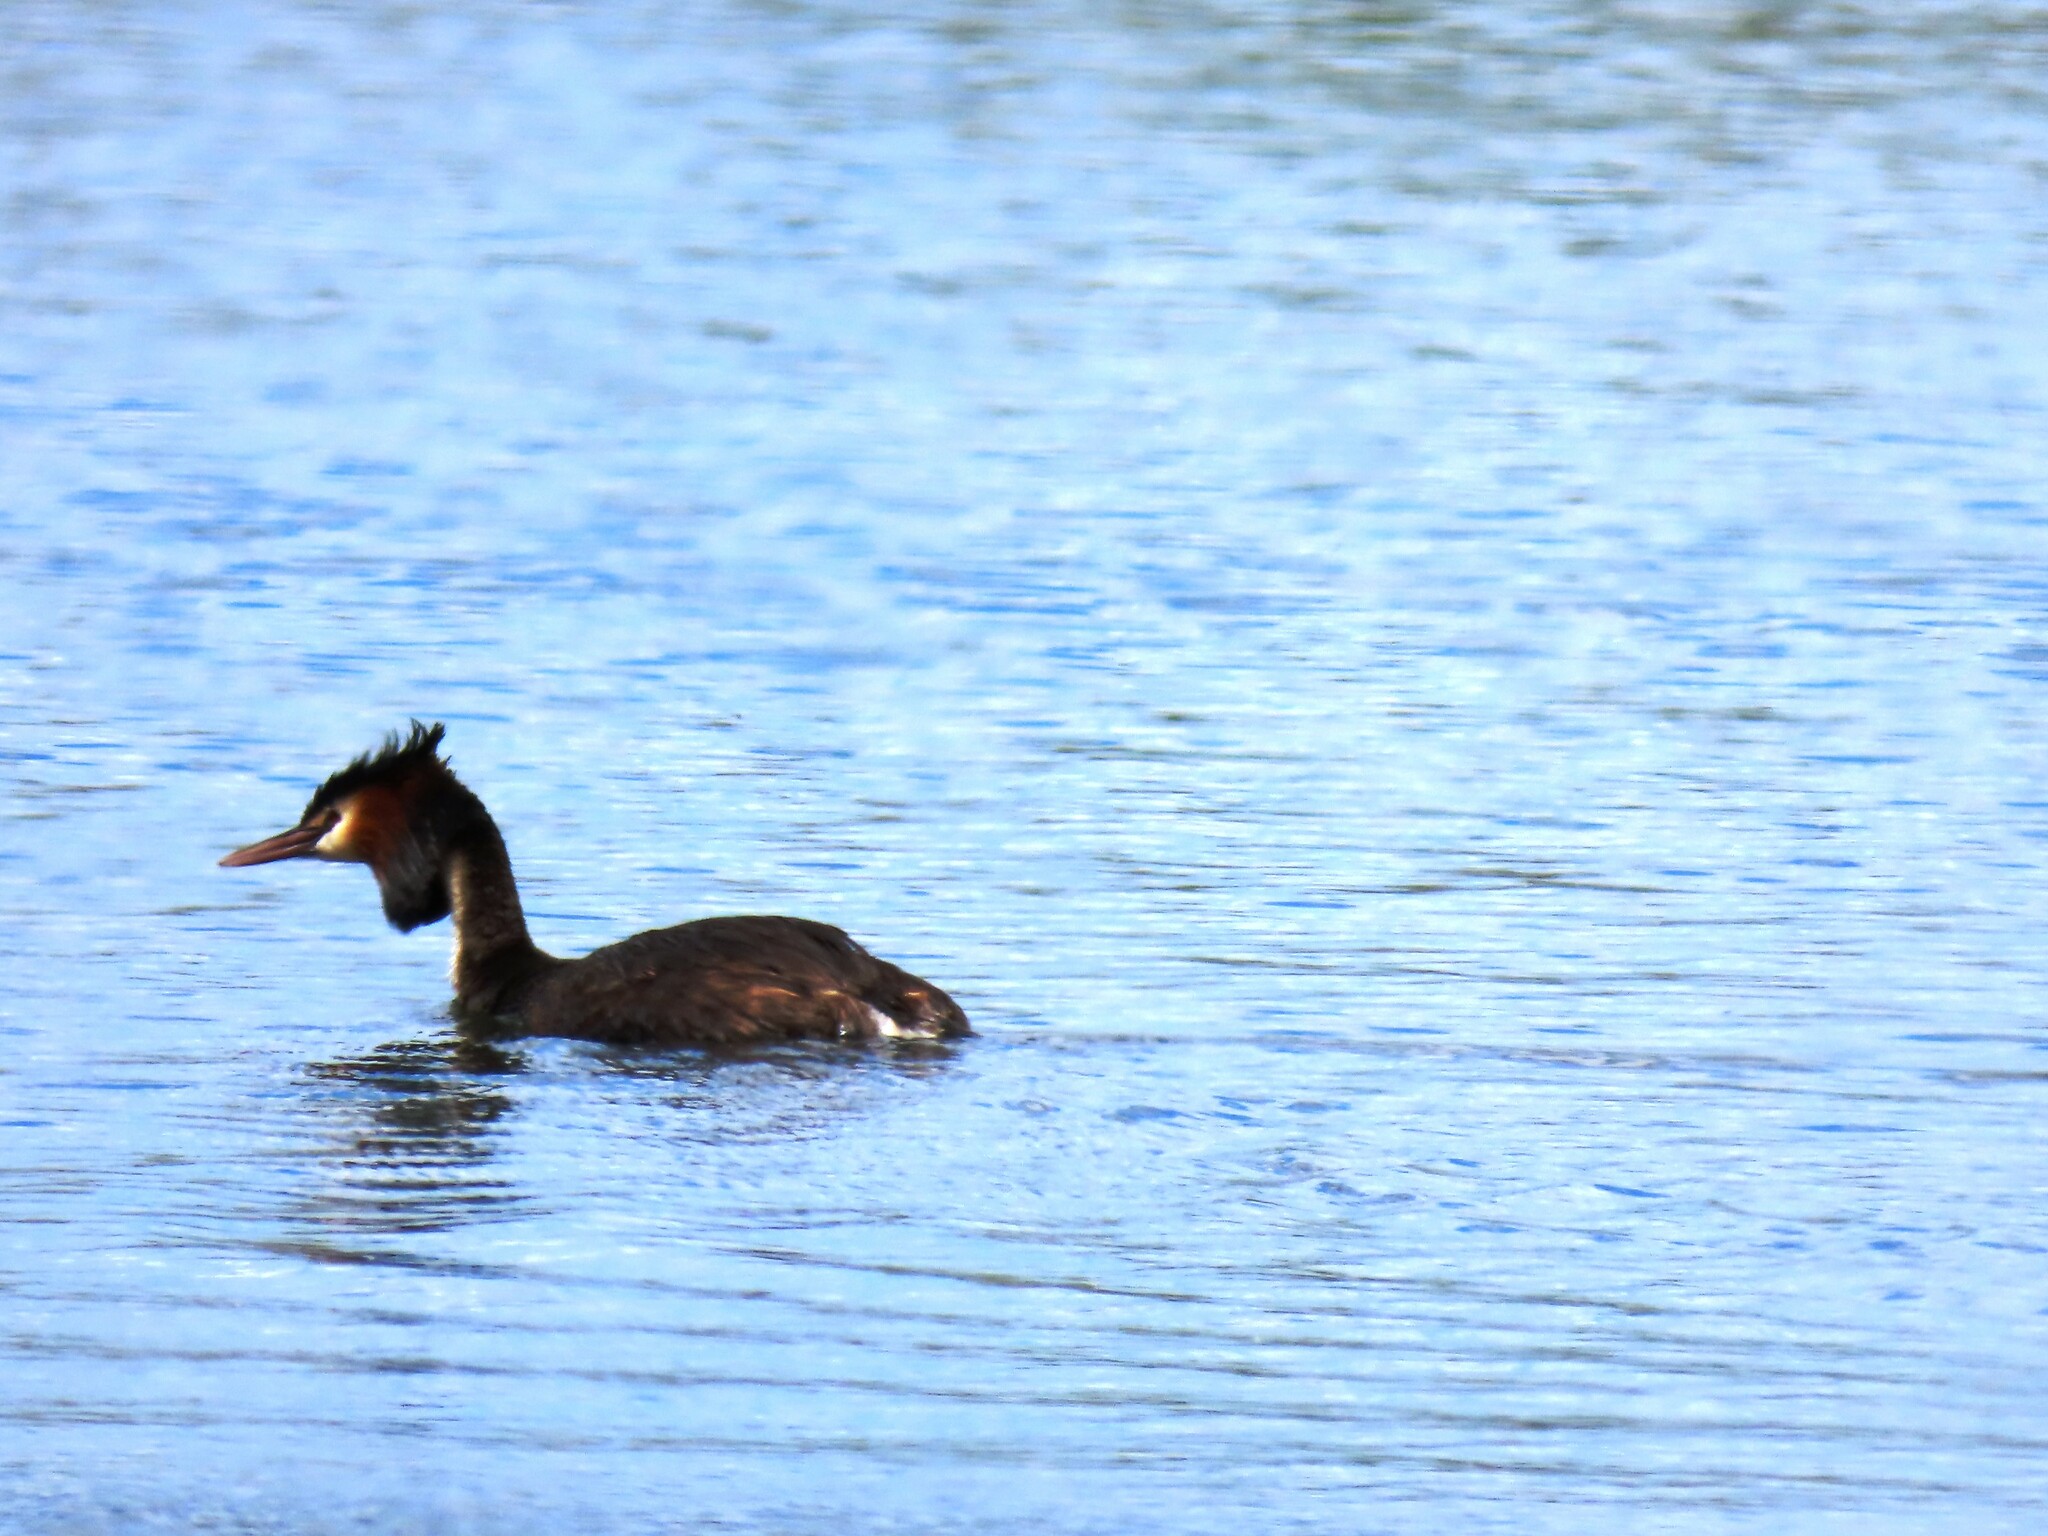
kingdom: Animalia
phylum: Chordata
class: Aves
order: Podicipediformes
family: Podicipedidae
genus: Podiceps
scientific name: Podiceps cristatus
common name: Great crested grebe
